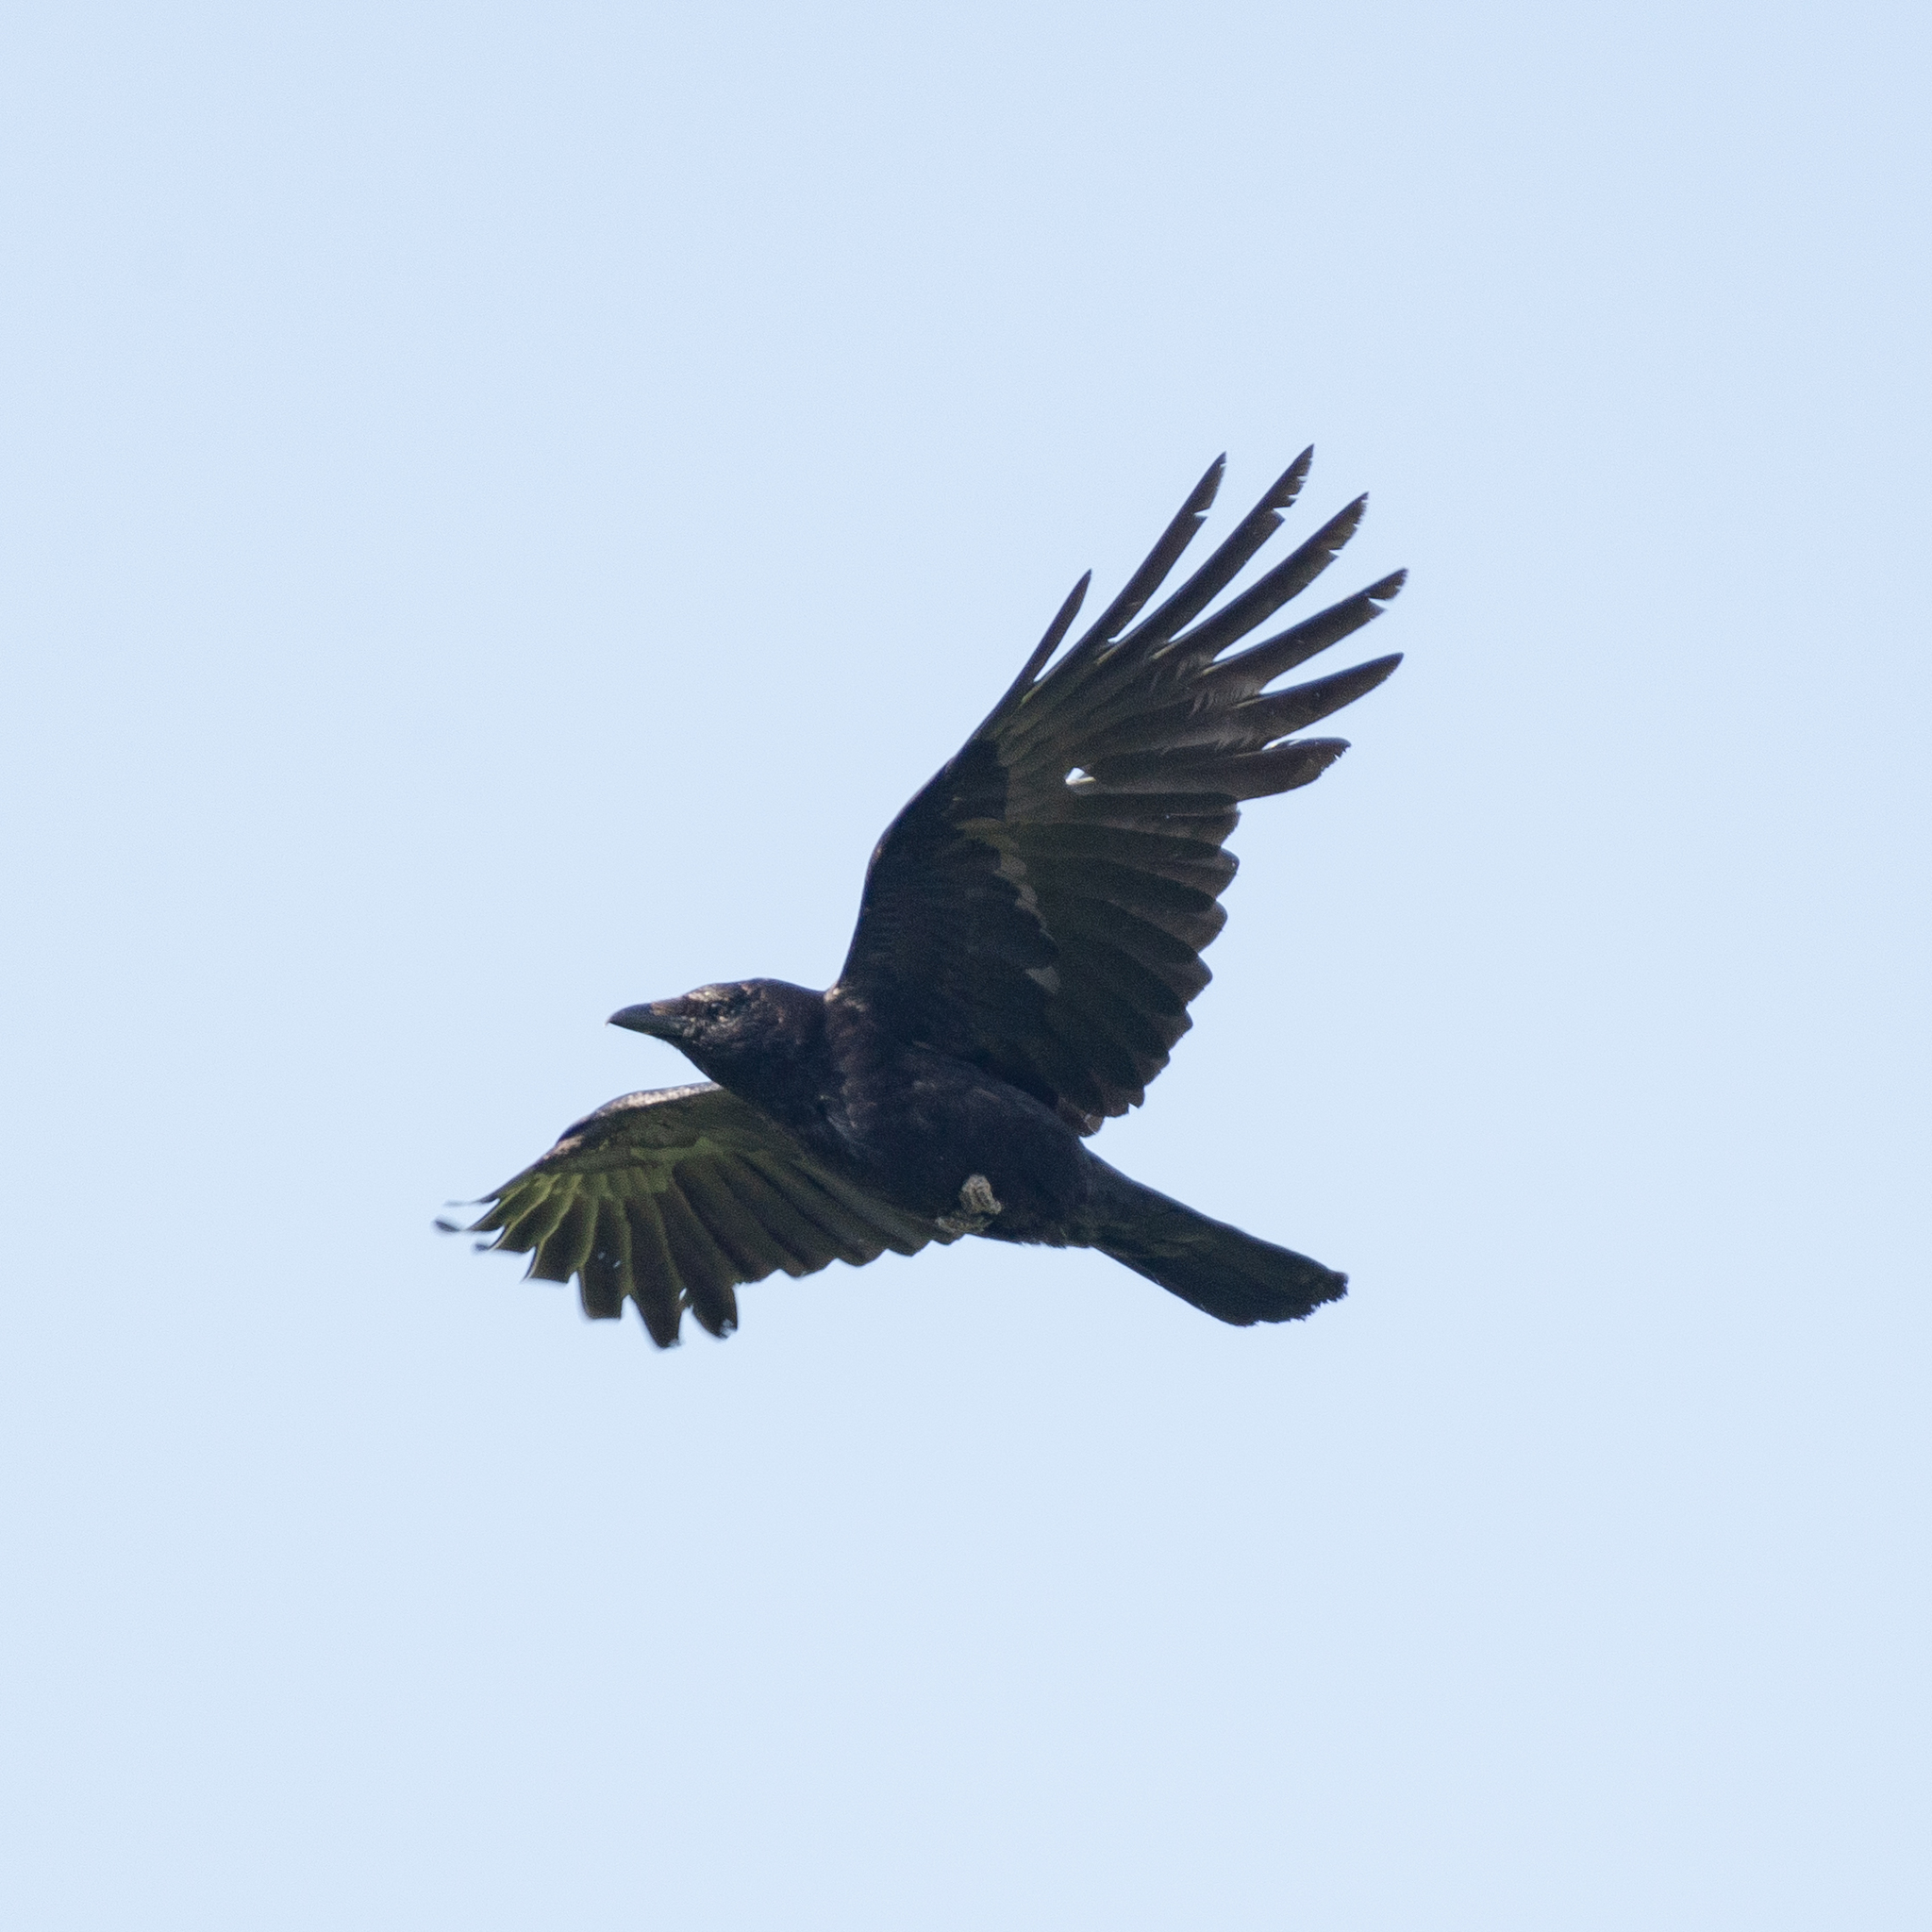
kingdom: Animalia
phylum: Chordata
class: Aves
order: Passeriformes
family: Corvidae
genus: Corvus
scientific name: Corvus corone
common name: Carrion crow
